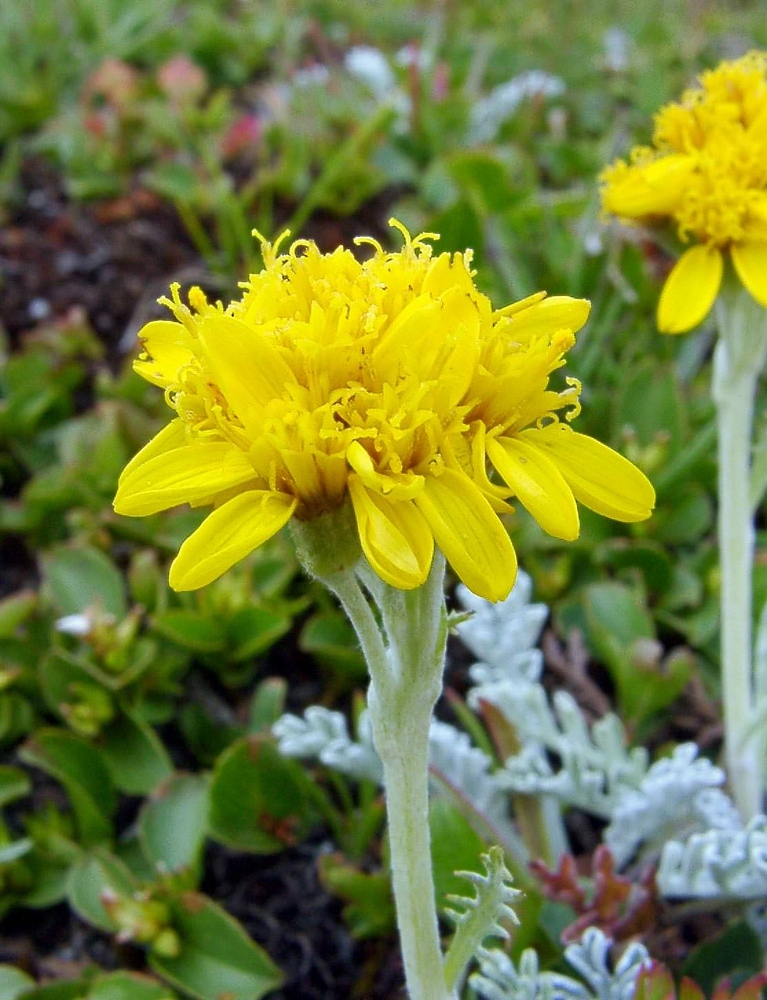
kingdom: Plantae
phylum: Tracheophyta
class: Magnoliopsida
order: Asterales
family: Asteraceae
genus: Jacobaea
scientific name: Jacobaea incana
